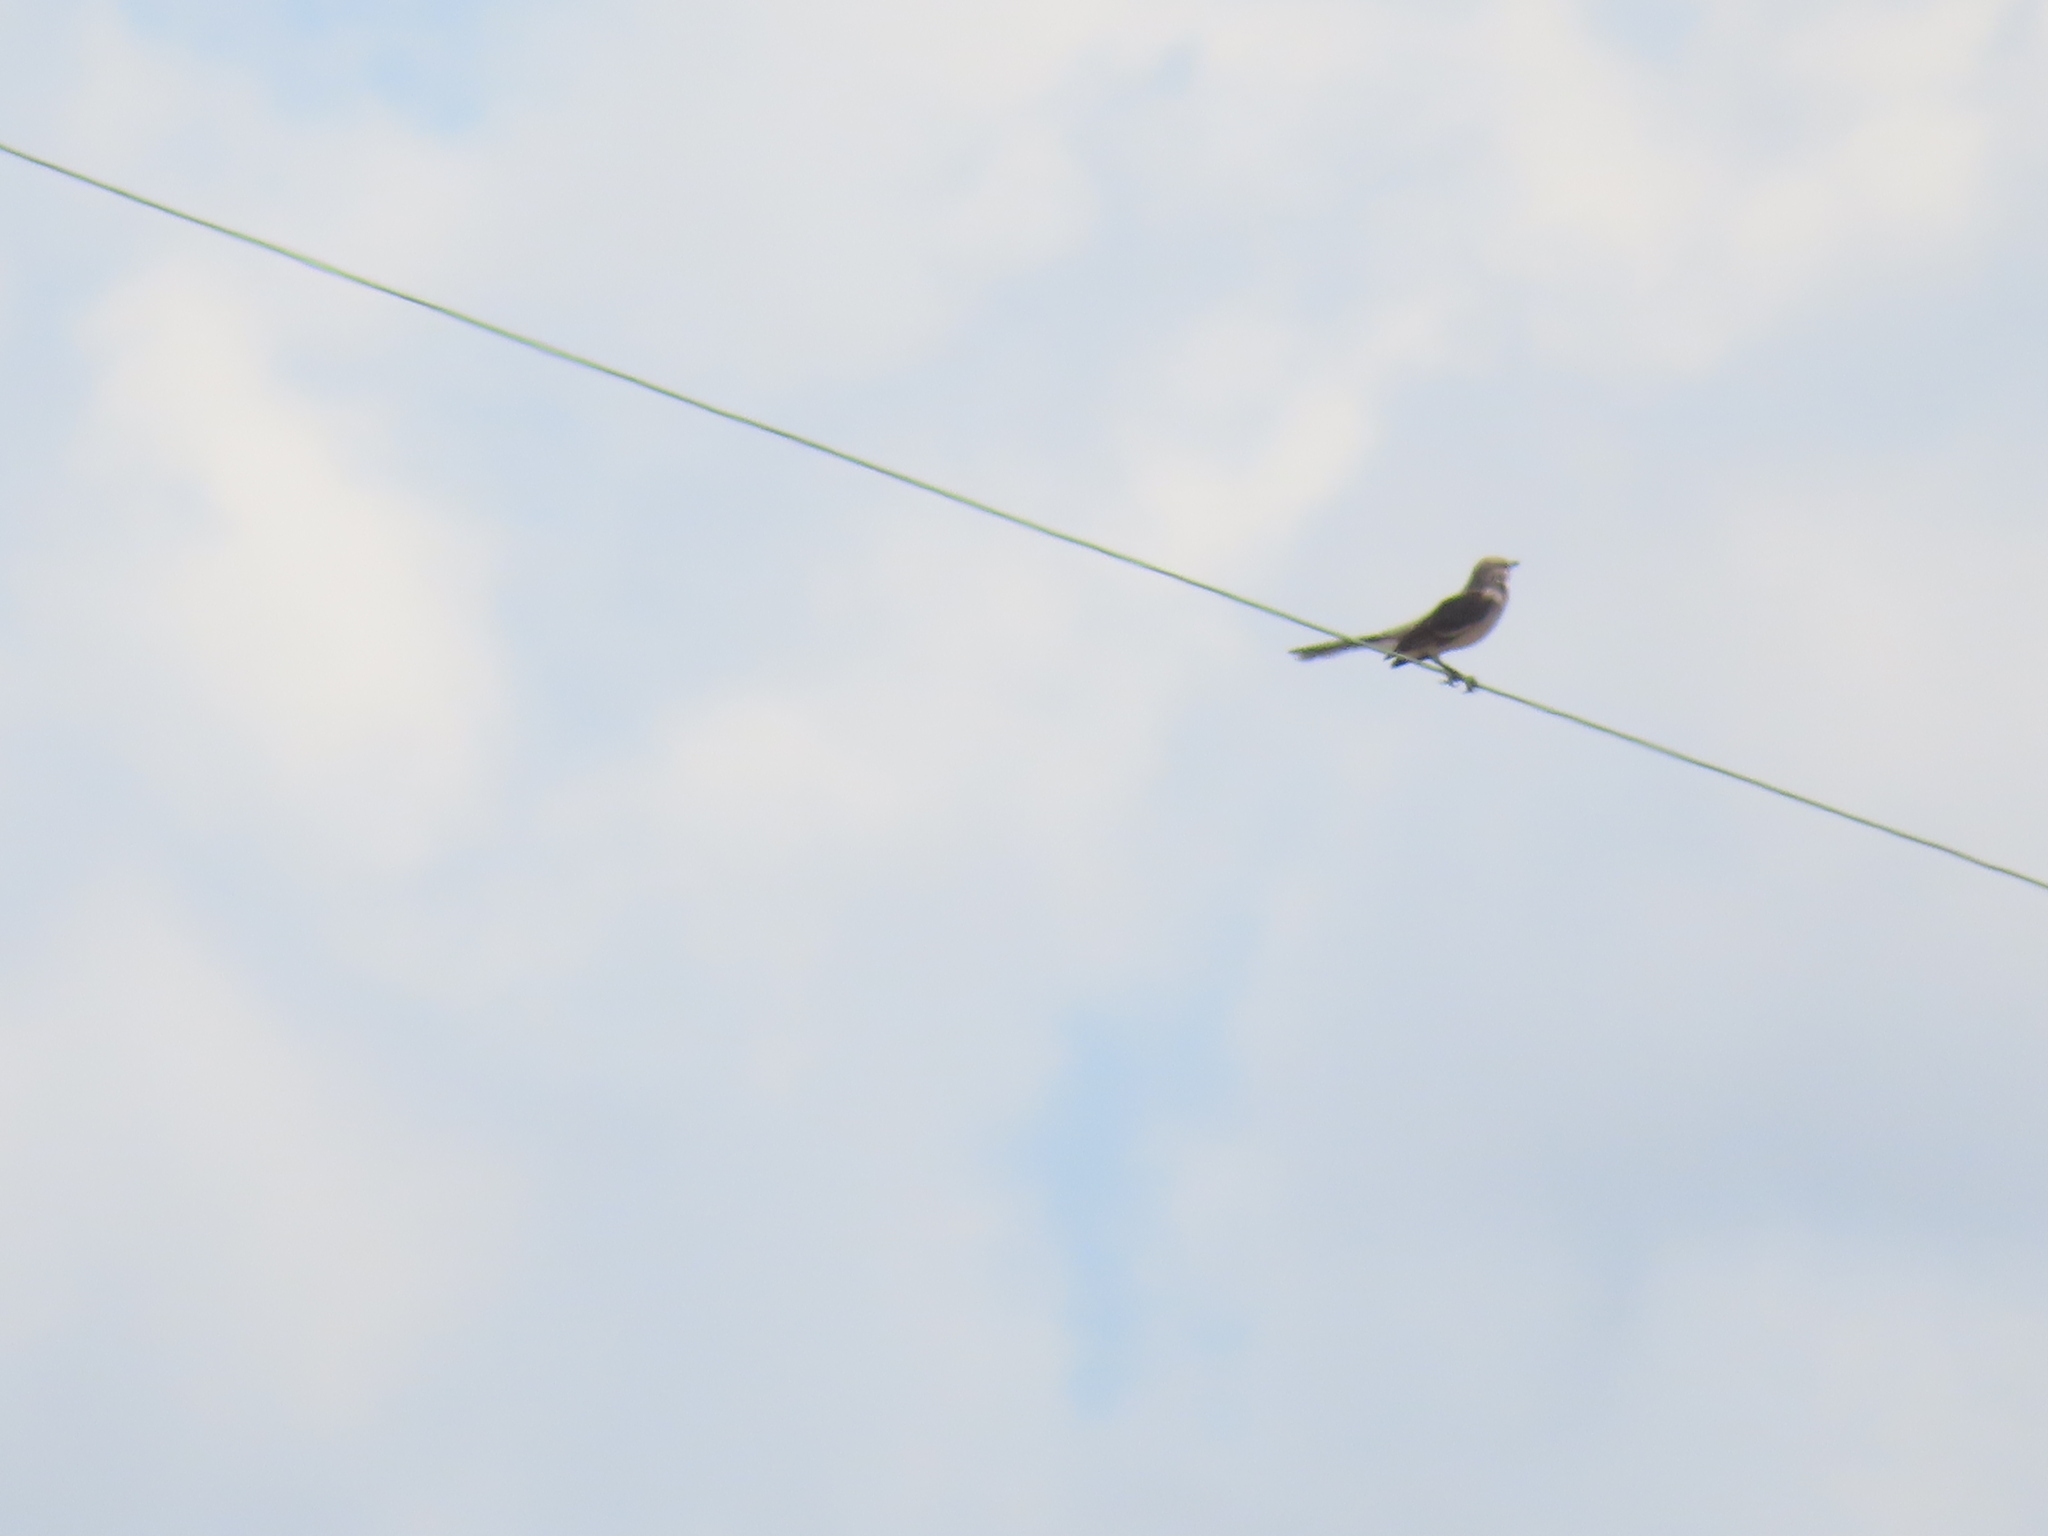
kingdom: Animalia
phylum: Chordata
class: Aves
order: Passeriformes
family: Mimidae
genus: Mimus
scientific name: Mimus polyglottos
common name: Northern mockingbird
